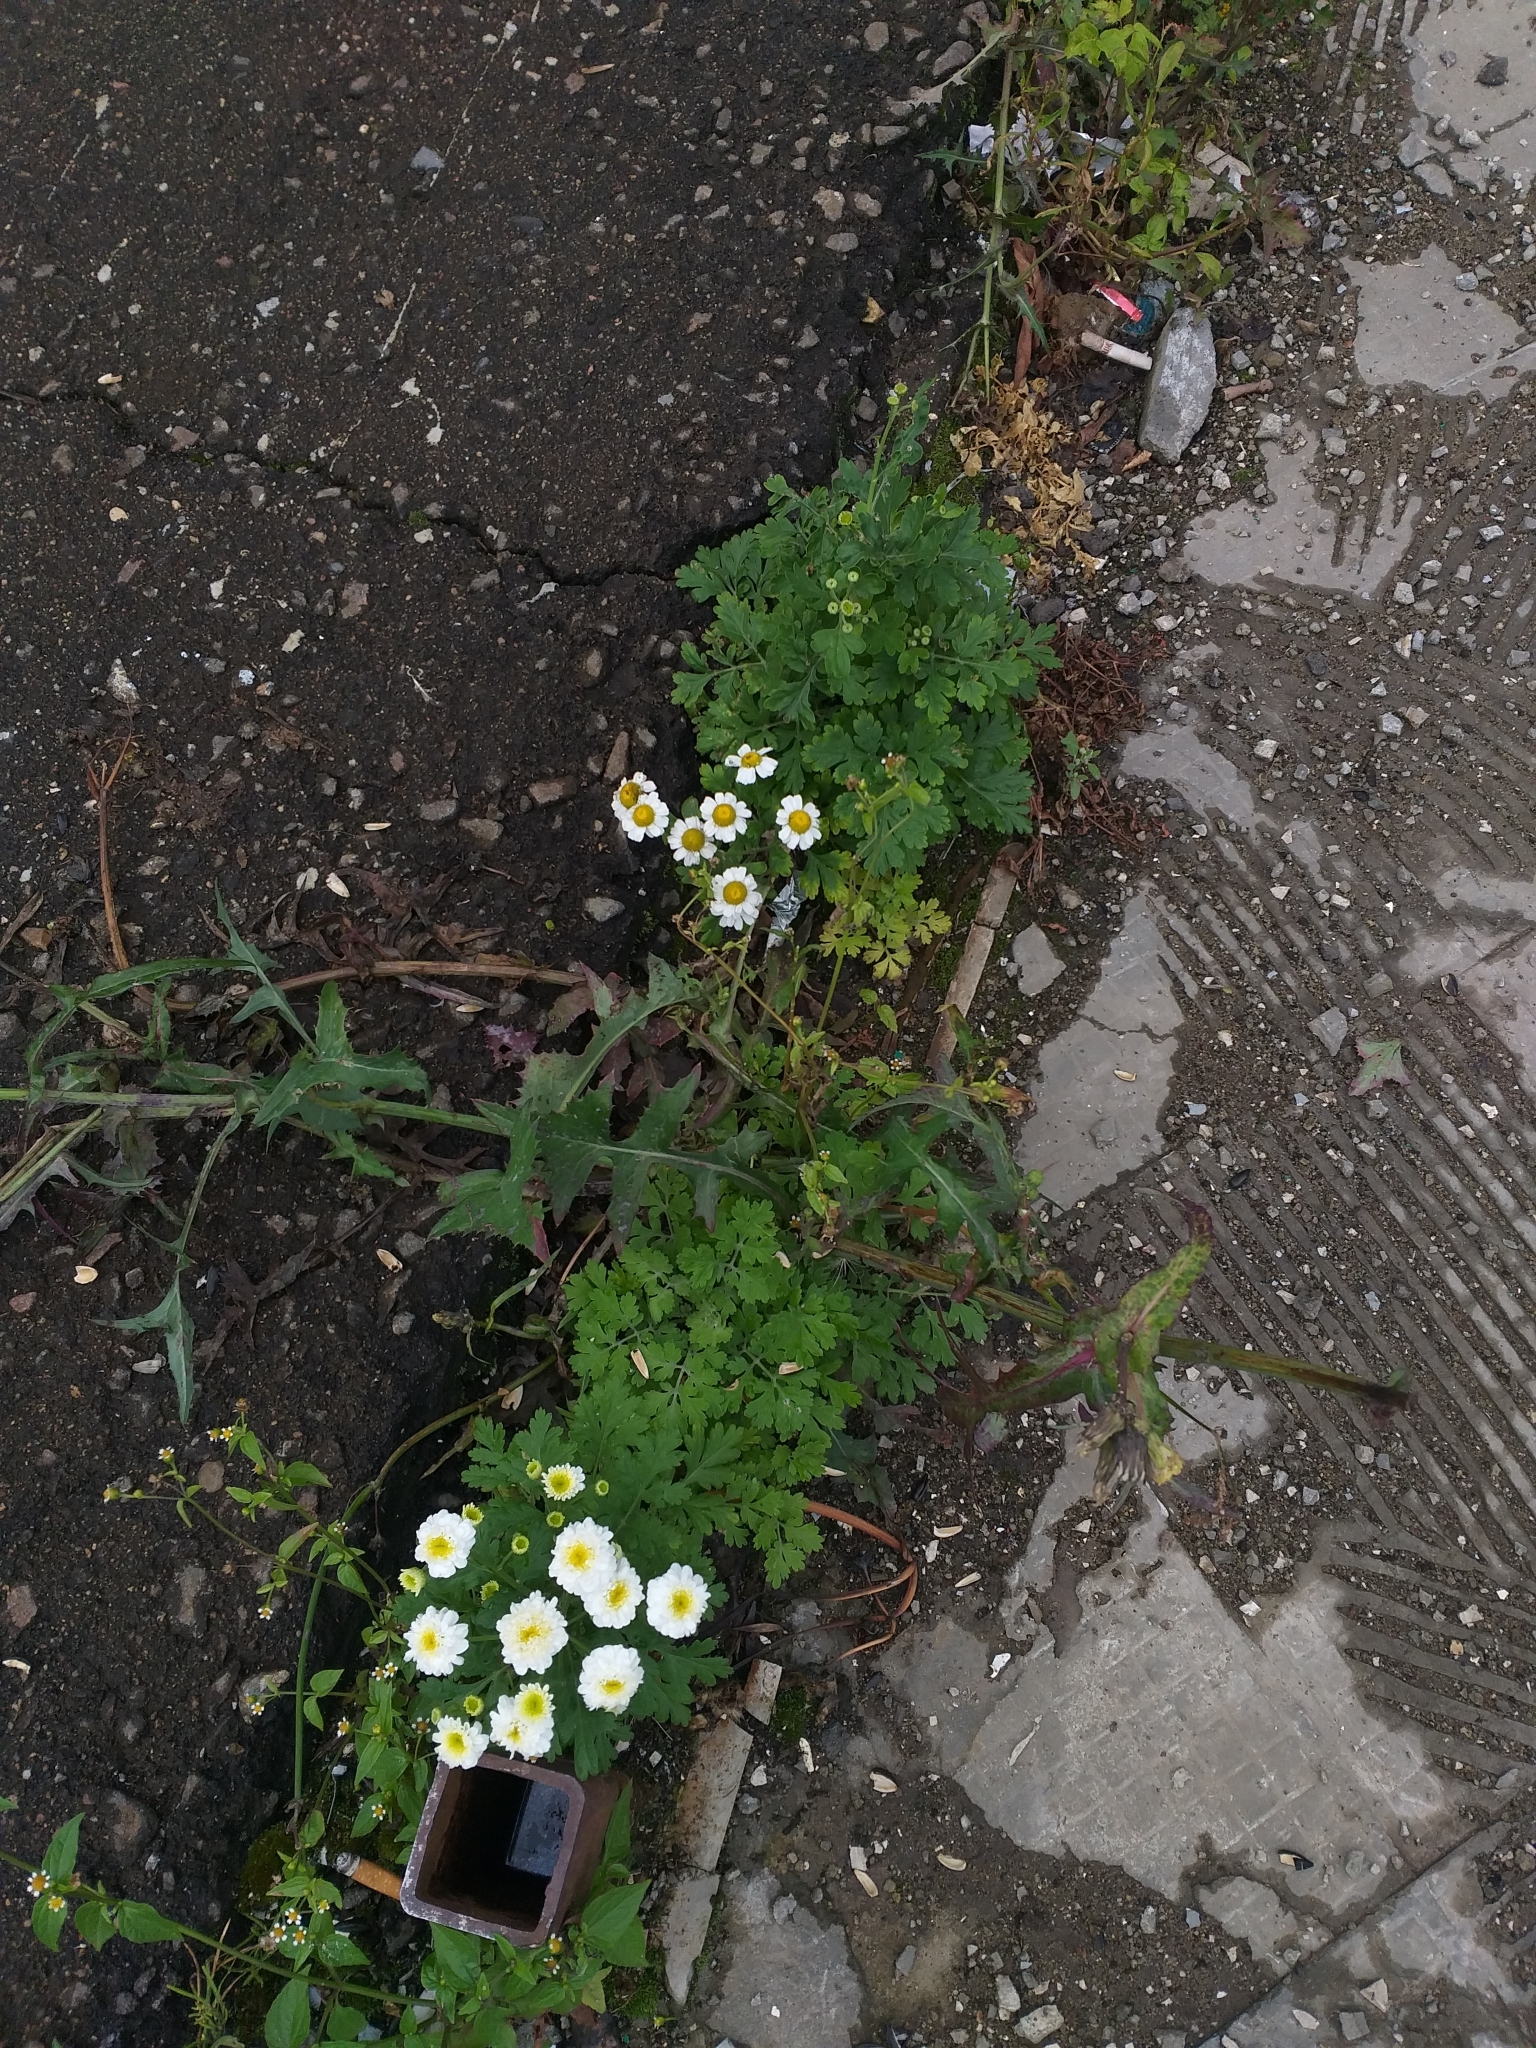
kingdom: Plantae
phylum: Tracheophyta
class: Magnoliopsida
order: Asterales
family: Asteraceae
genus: Tanacetum
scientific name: Tanacetum parthenium
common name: Feverfew
